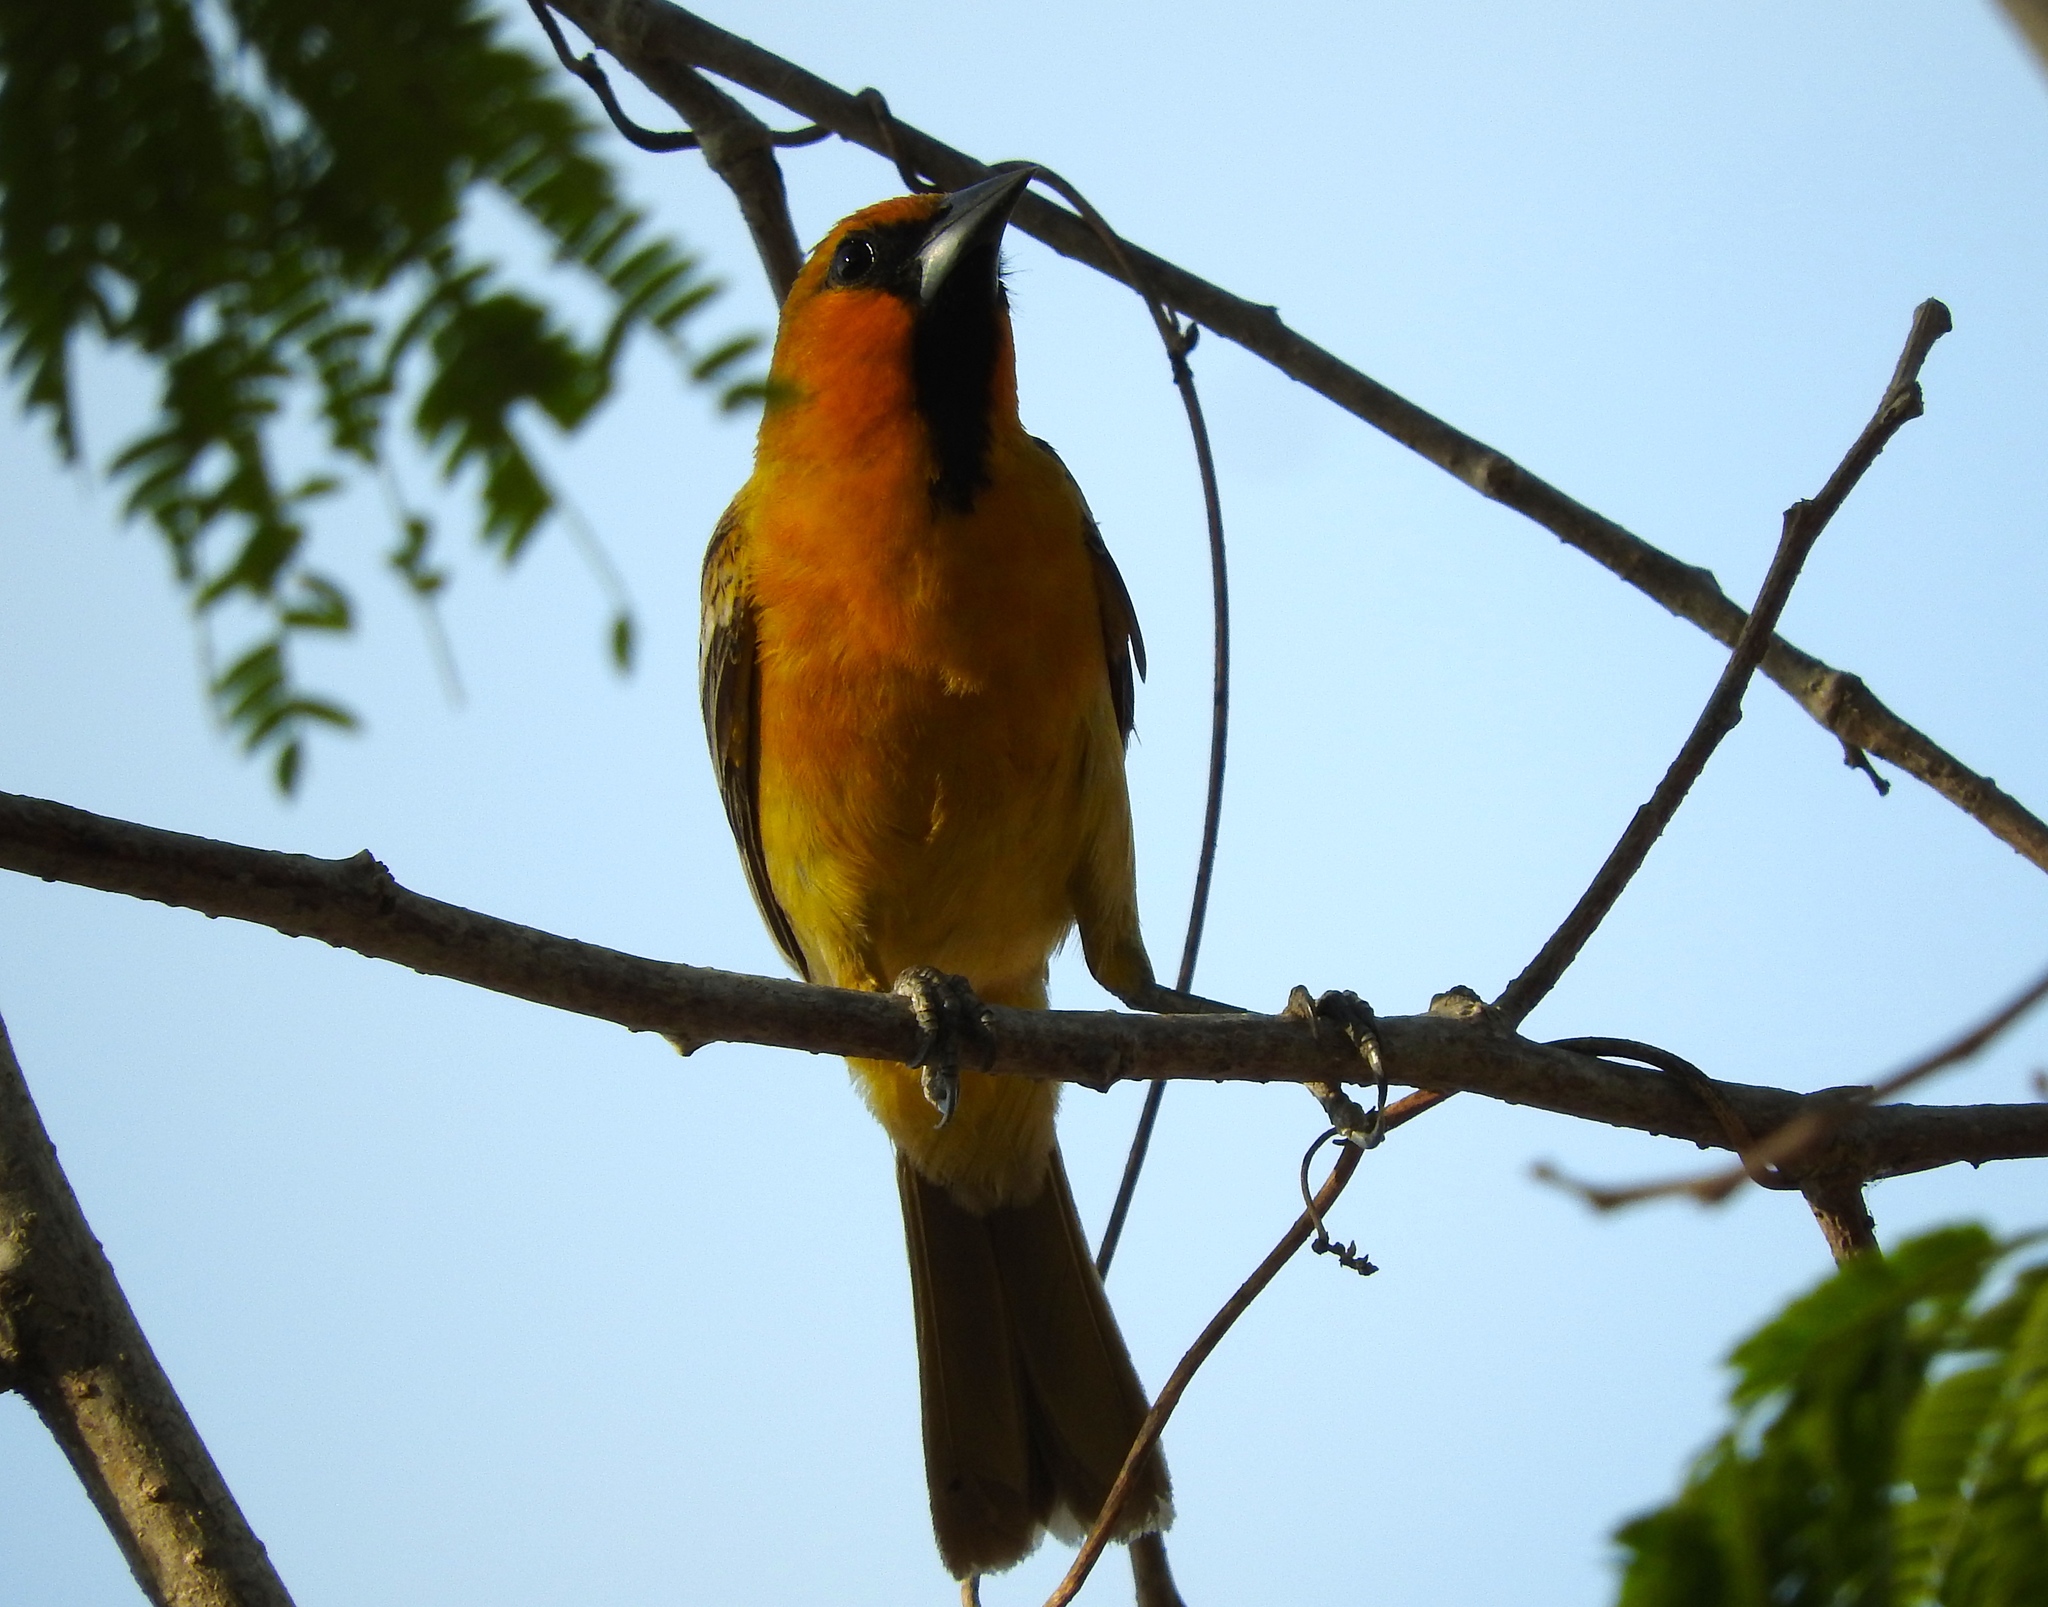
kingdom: Animalia
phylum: Chordata
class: Aves
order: Passeriformes
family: Icteridae
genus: Icterus
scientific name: Icterus pustulatus
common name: Streak-backed oriole
